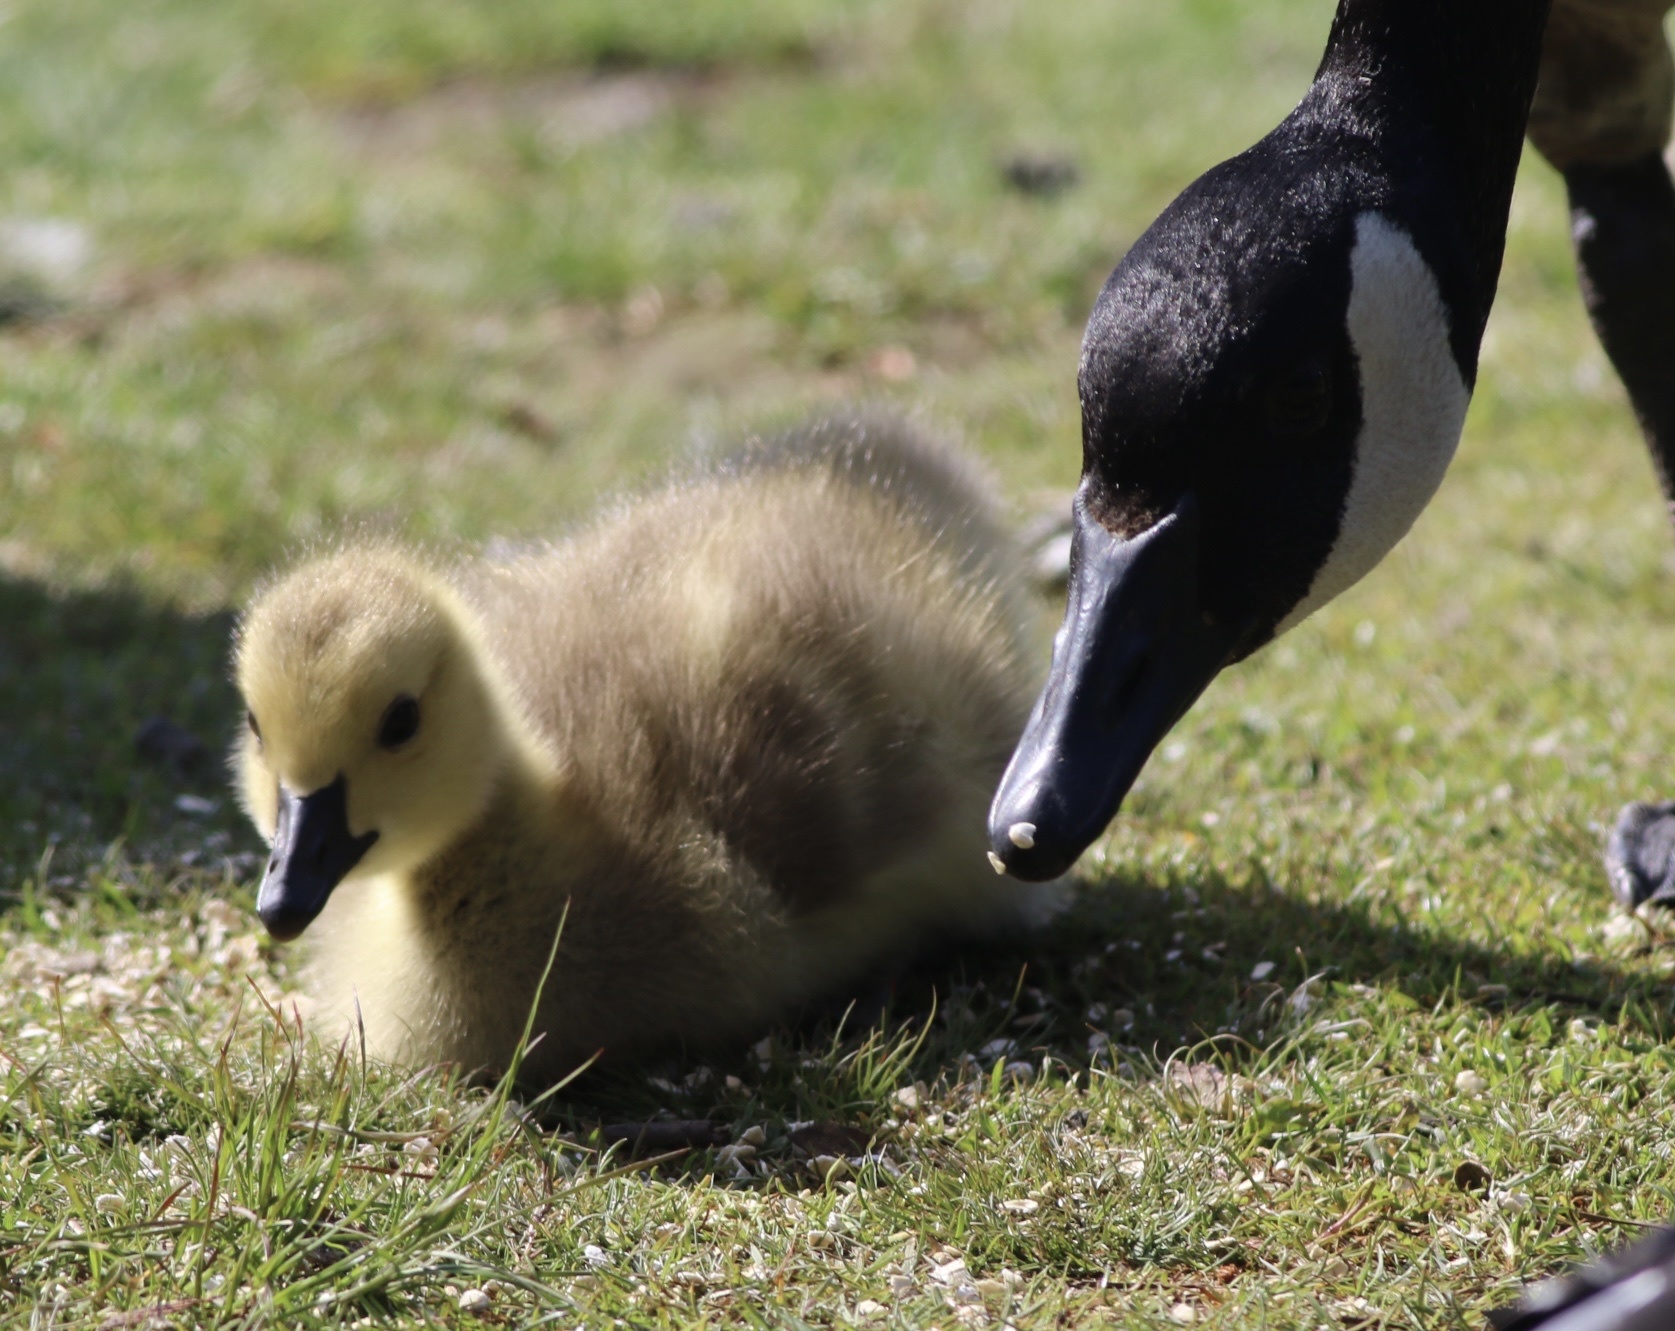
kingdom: Animalia
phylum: Chordata
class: Aves
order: Anseriformes
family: Anatidae
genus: Branta
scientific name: Branta canadensis
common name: Canada goose
